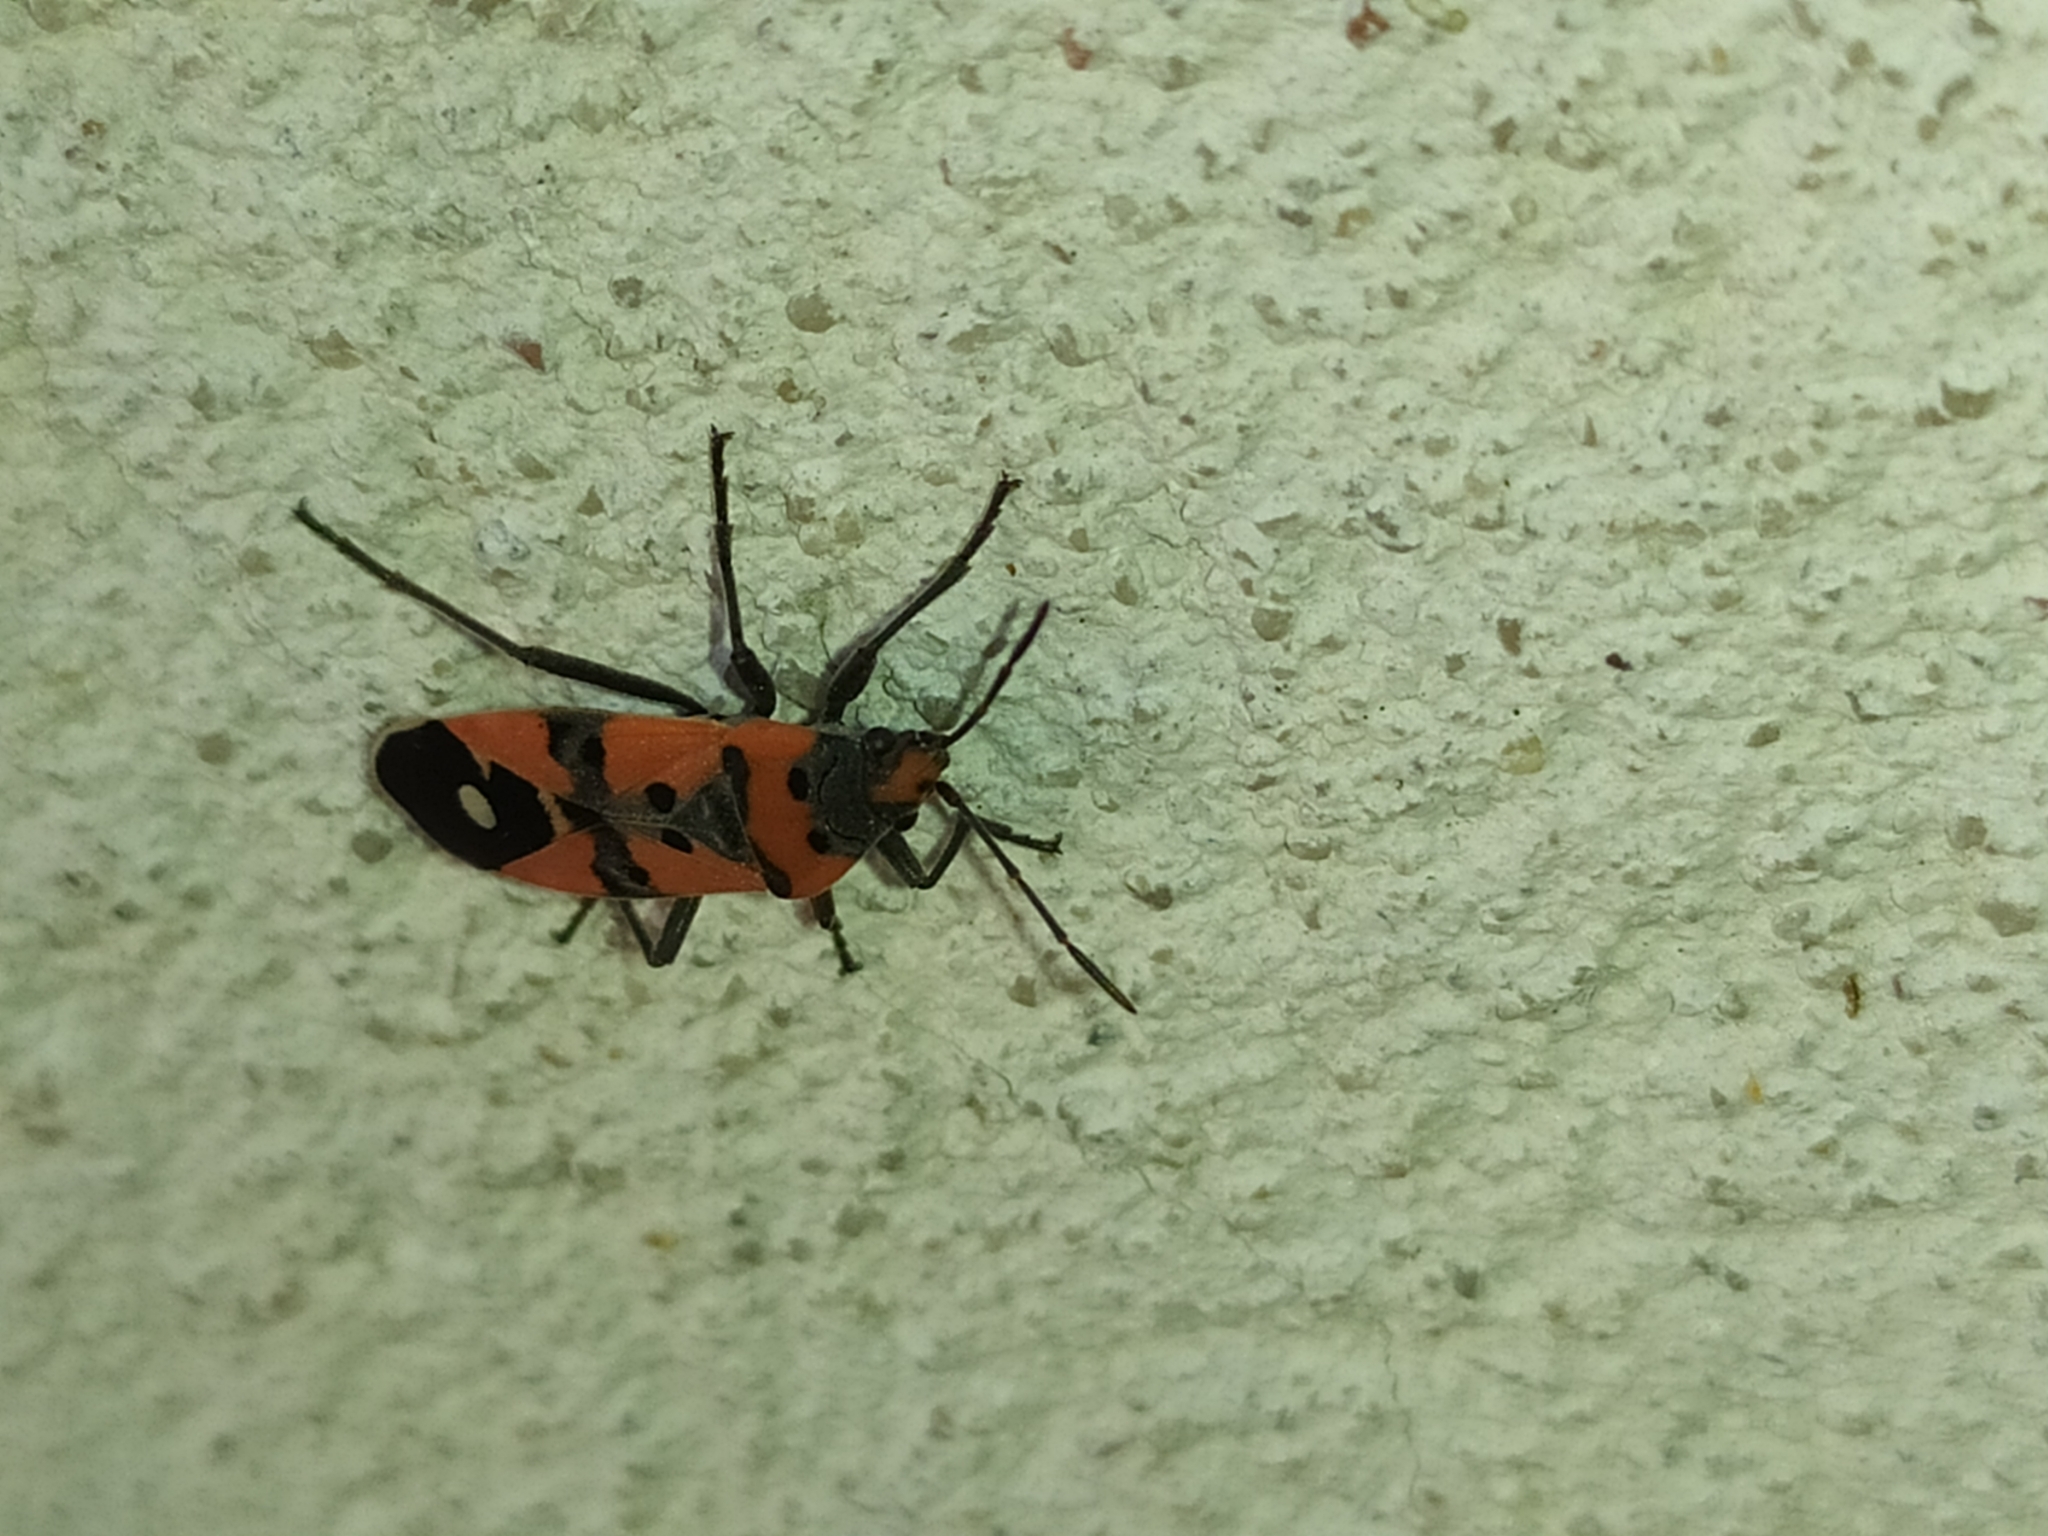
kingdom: Animalia
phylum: Arthropoda
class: Insecta
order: Hemiptera
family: Lygaeidae
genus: Lygaeus
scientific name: Lygaeus equestris
